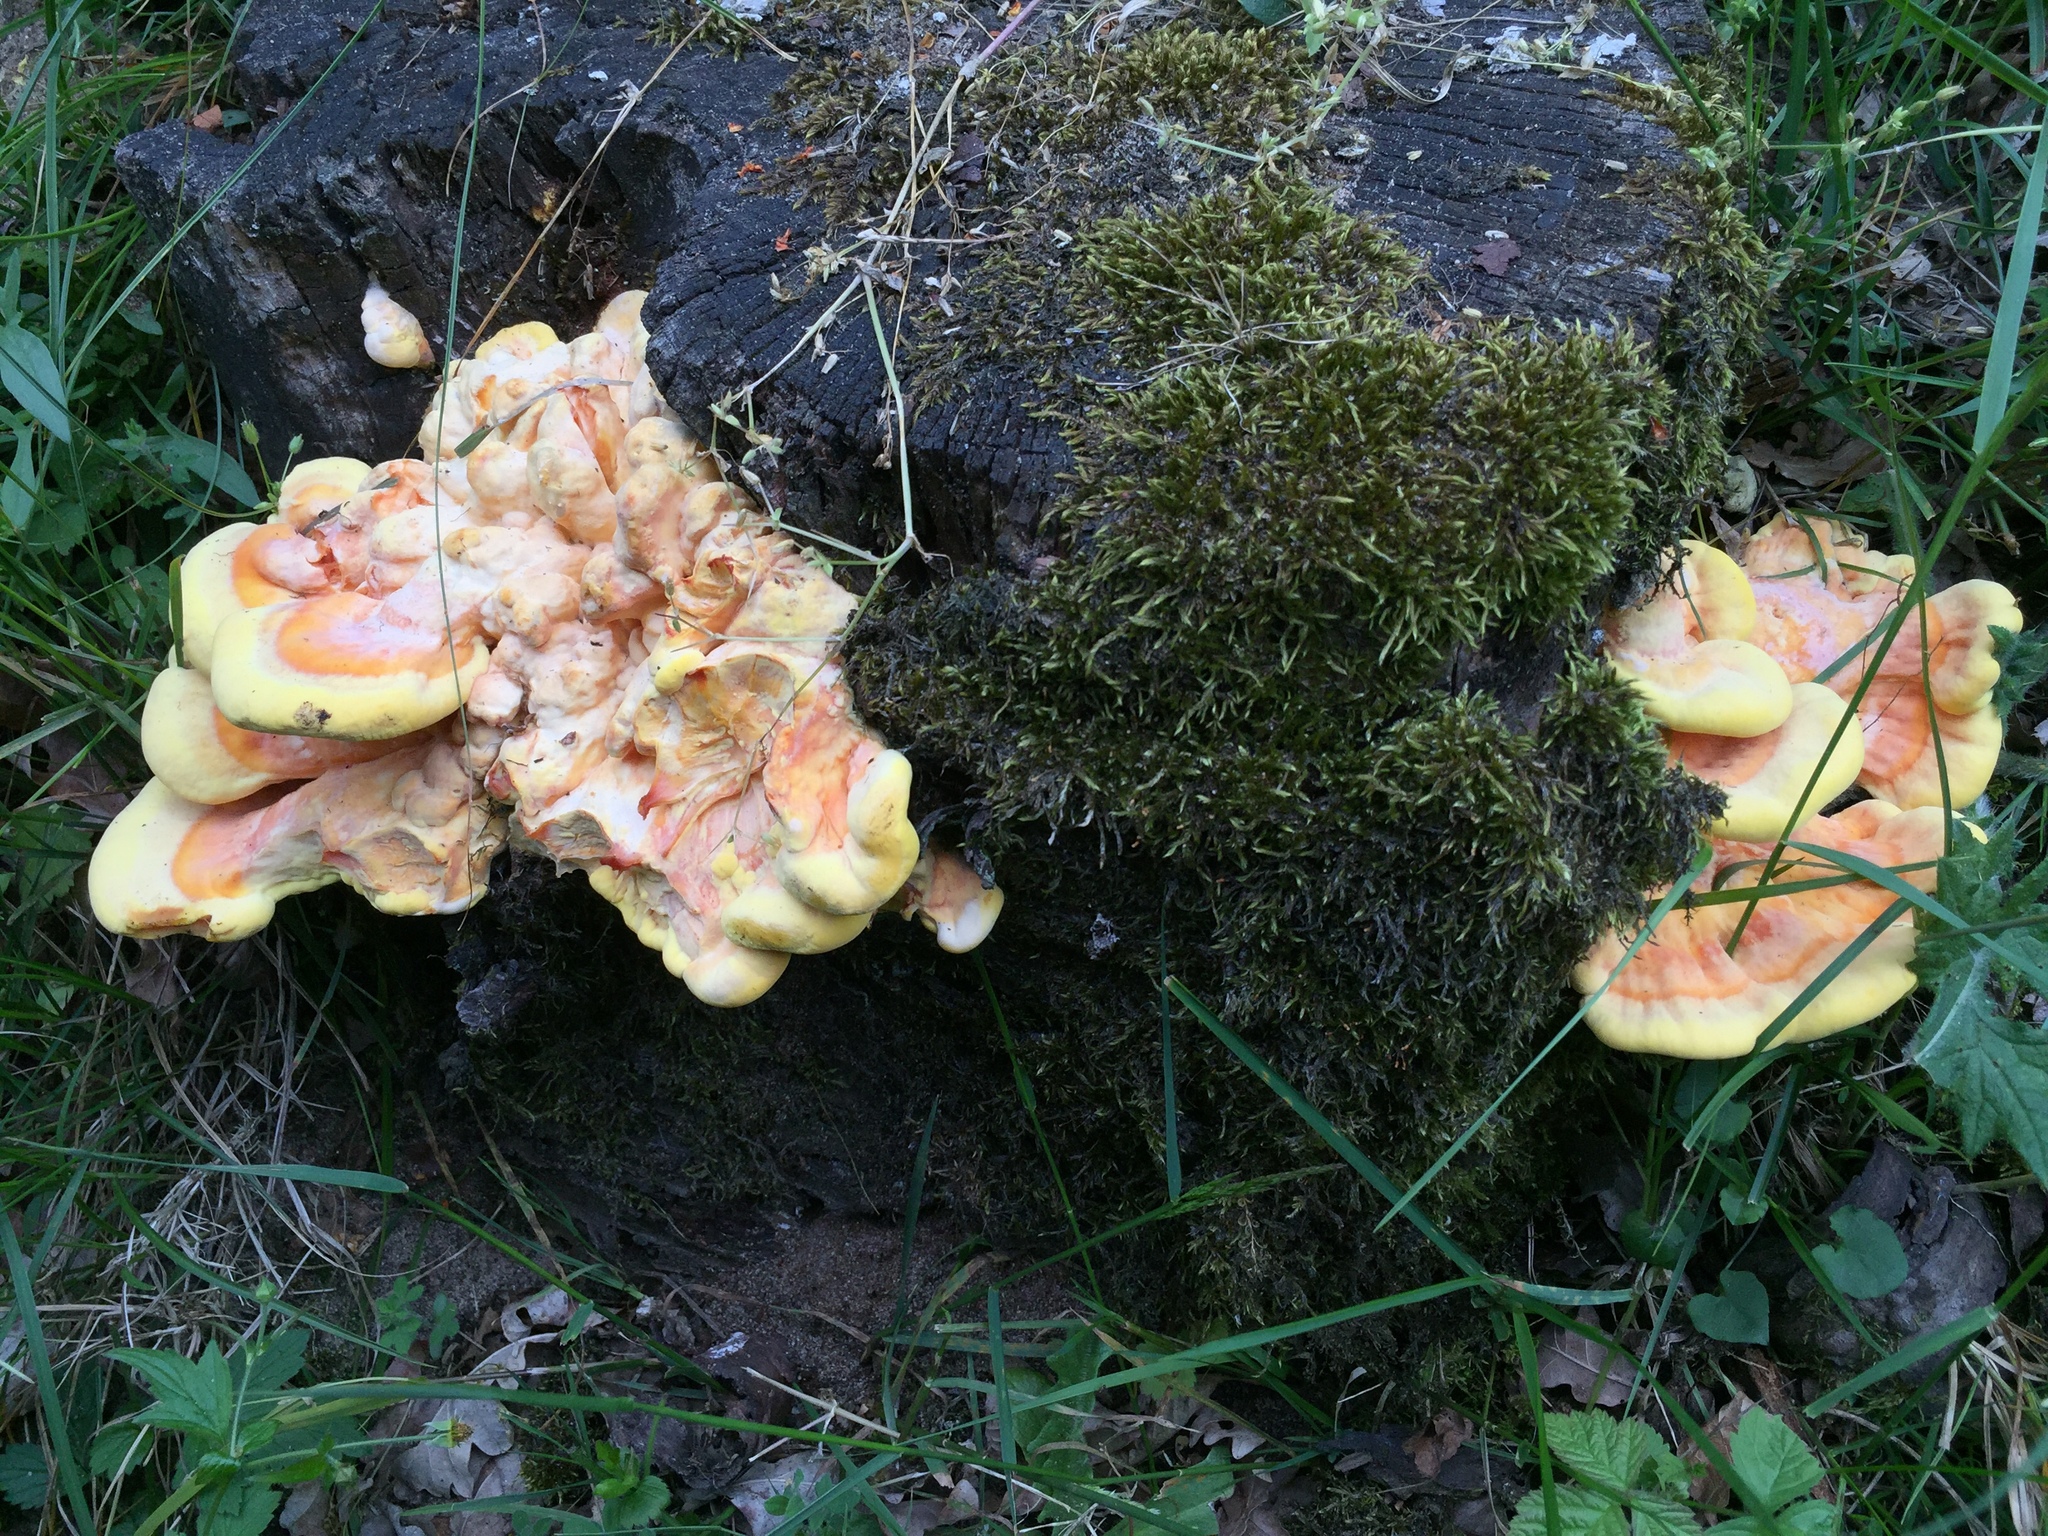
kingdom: Fungi
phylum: Basidiomycota
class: Agaricomycetes
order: Polyporales
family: Laetiporaceae
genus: Laetiporus
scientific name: Laetiporus sulphureus
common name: Chicken of the woods
